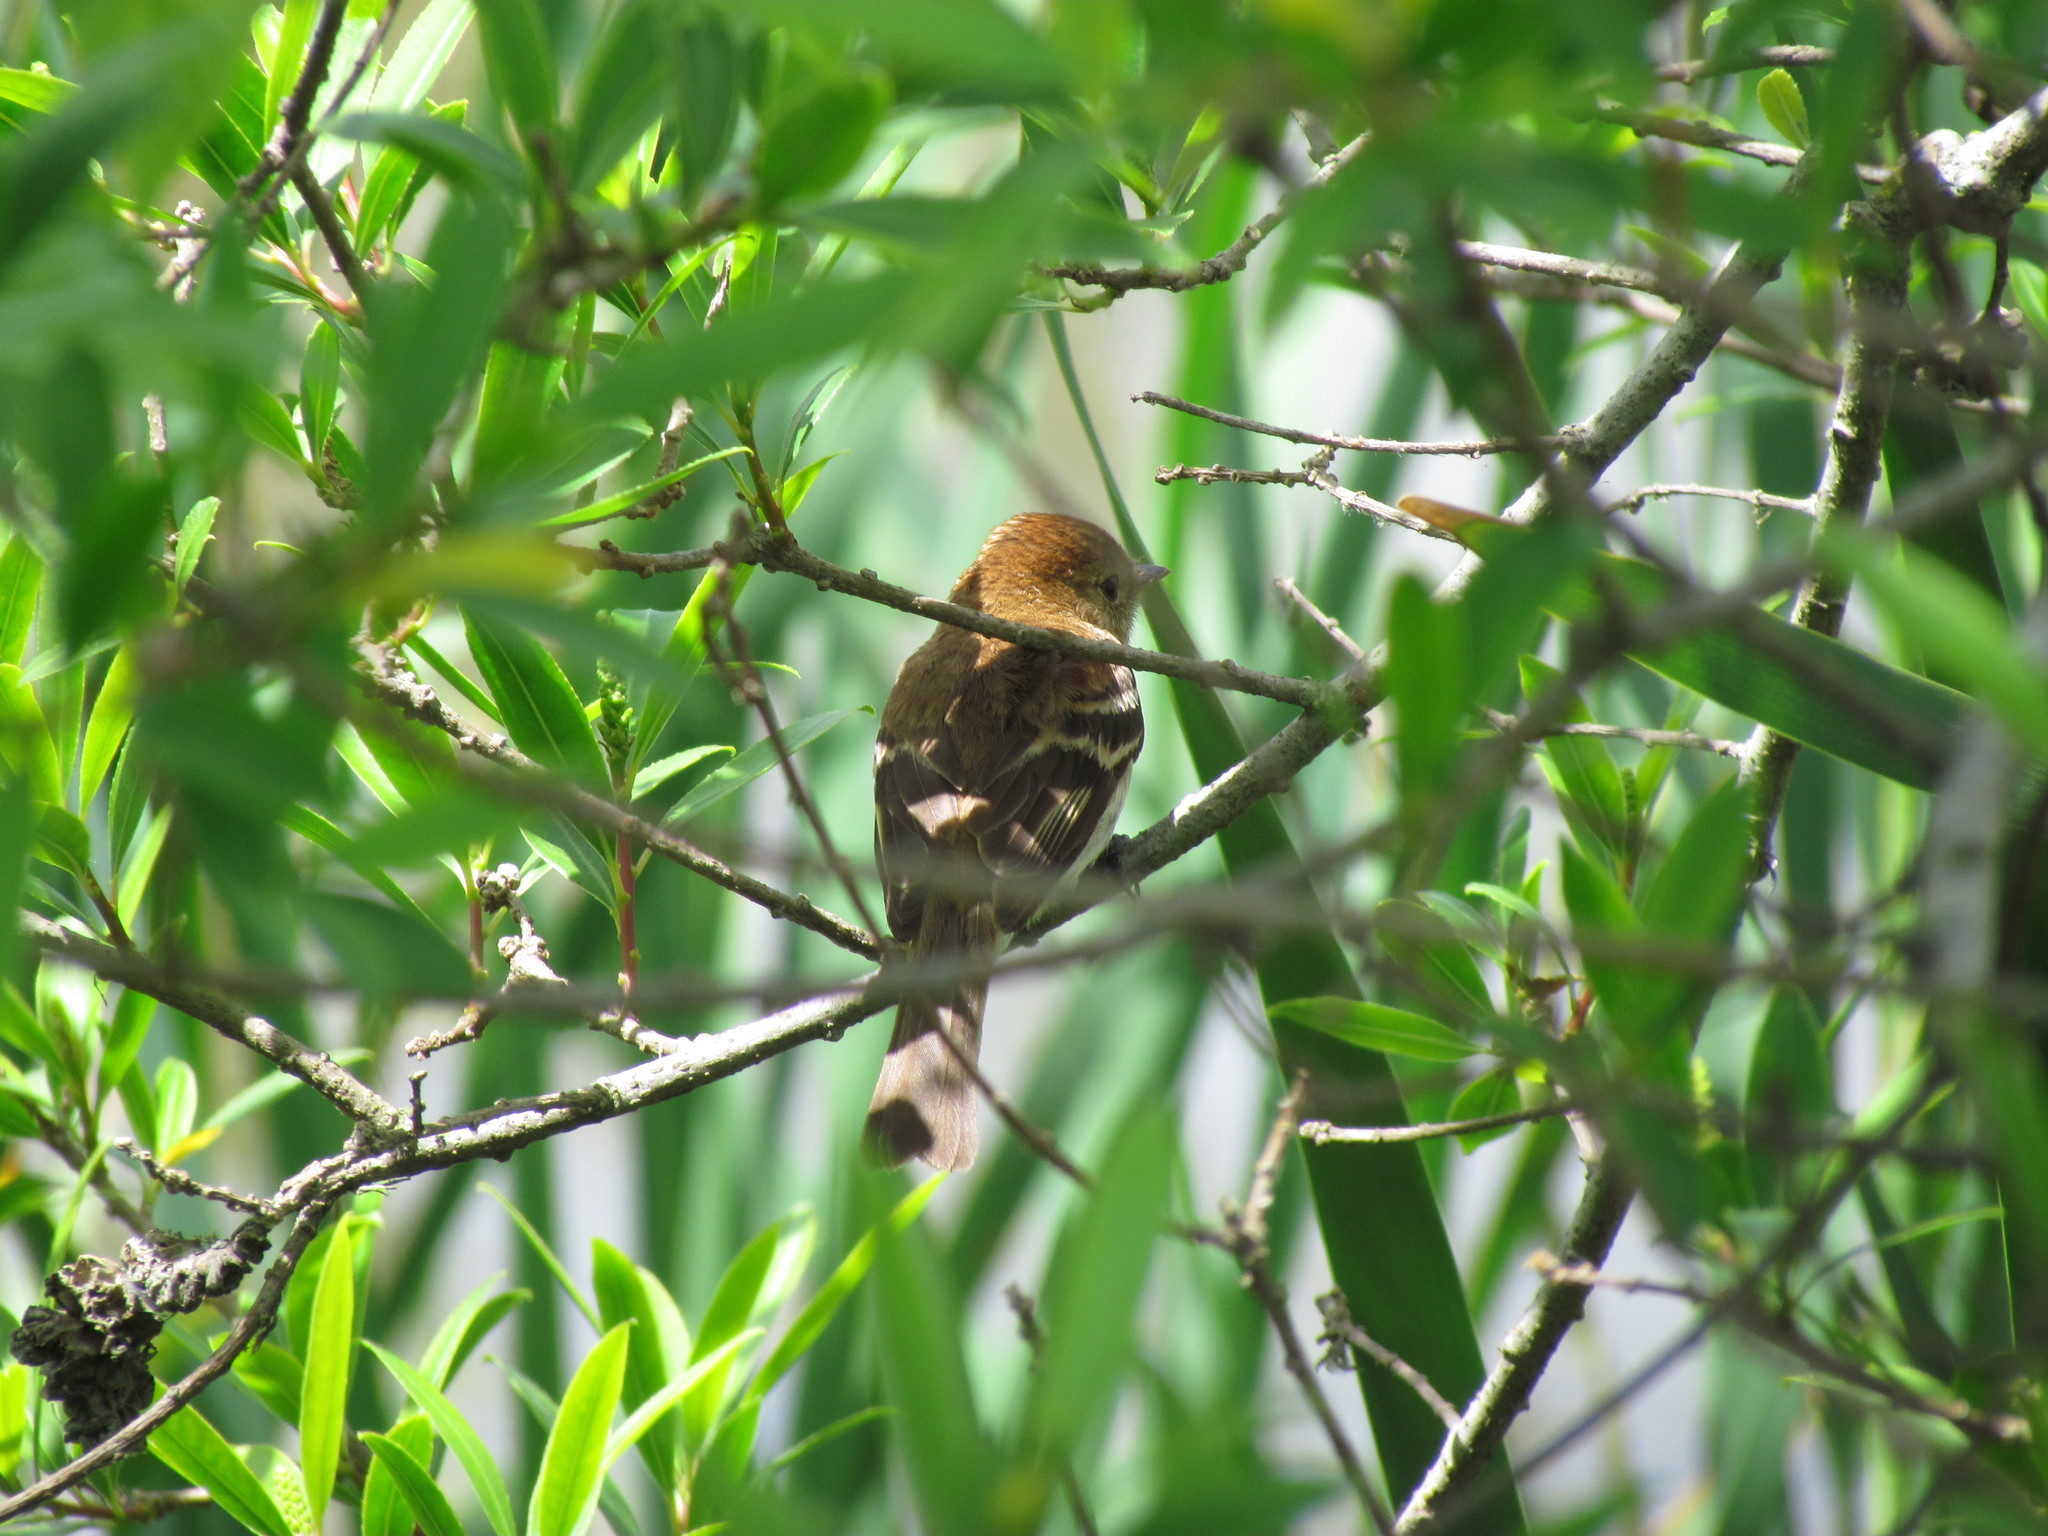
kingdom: Animalia
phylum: Chordata
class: Aves
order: Passeriformes
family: Tyrannidae
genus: Myiophobus
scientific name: Myiophobus fasciatus
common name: Bran-colored flycatcher
